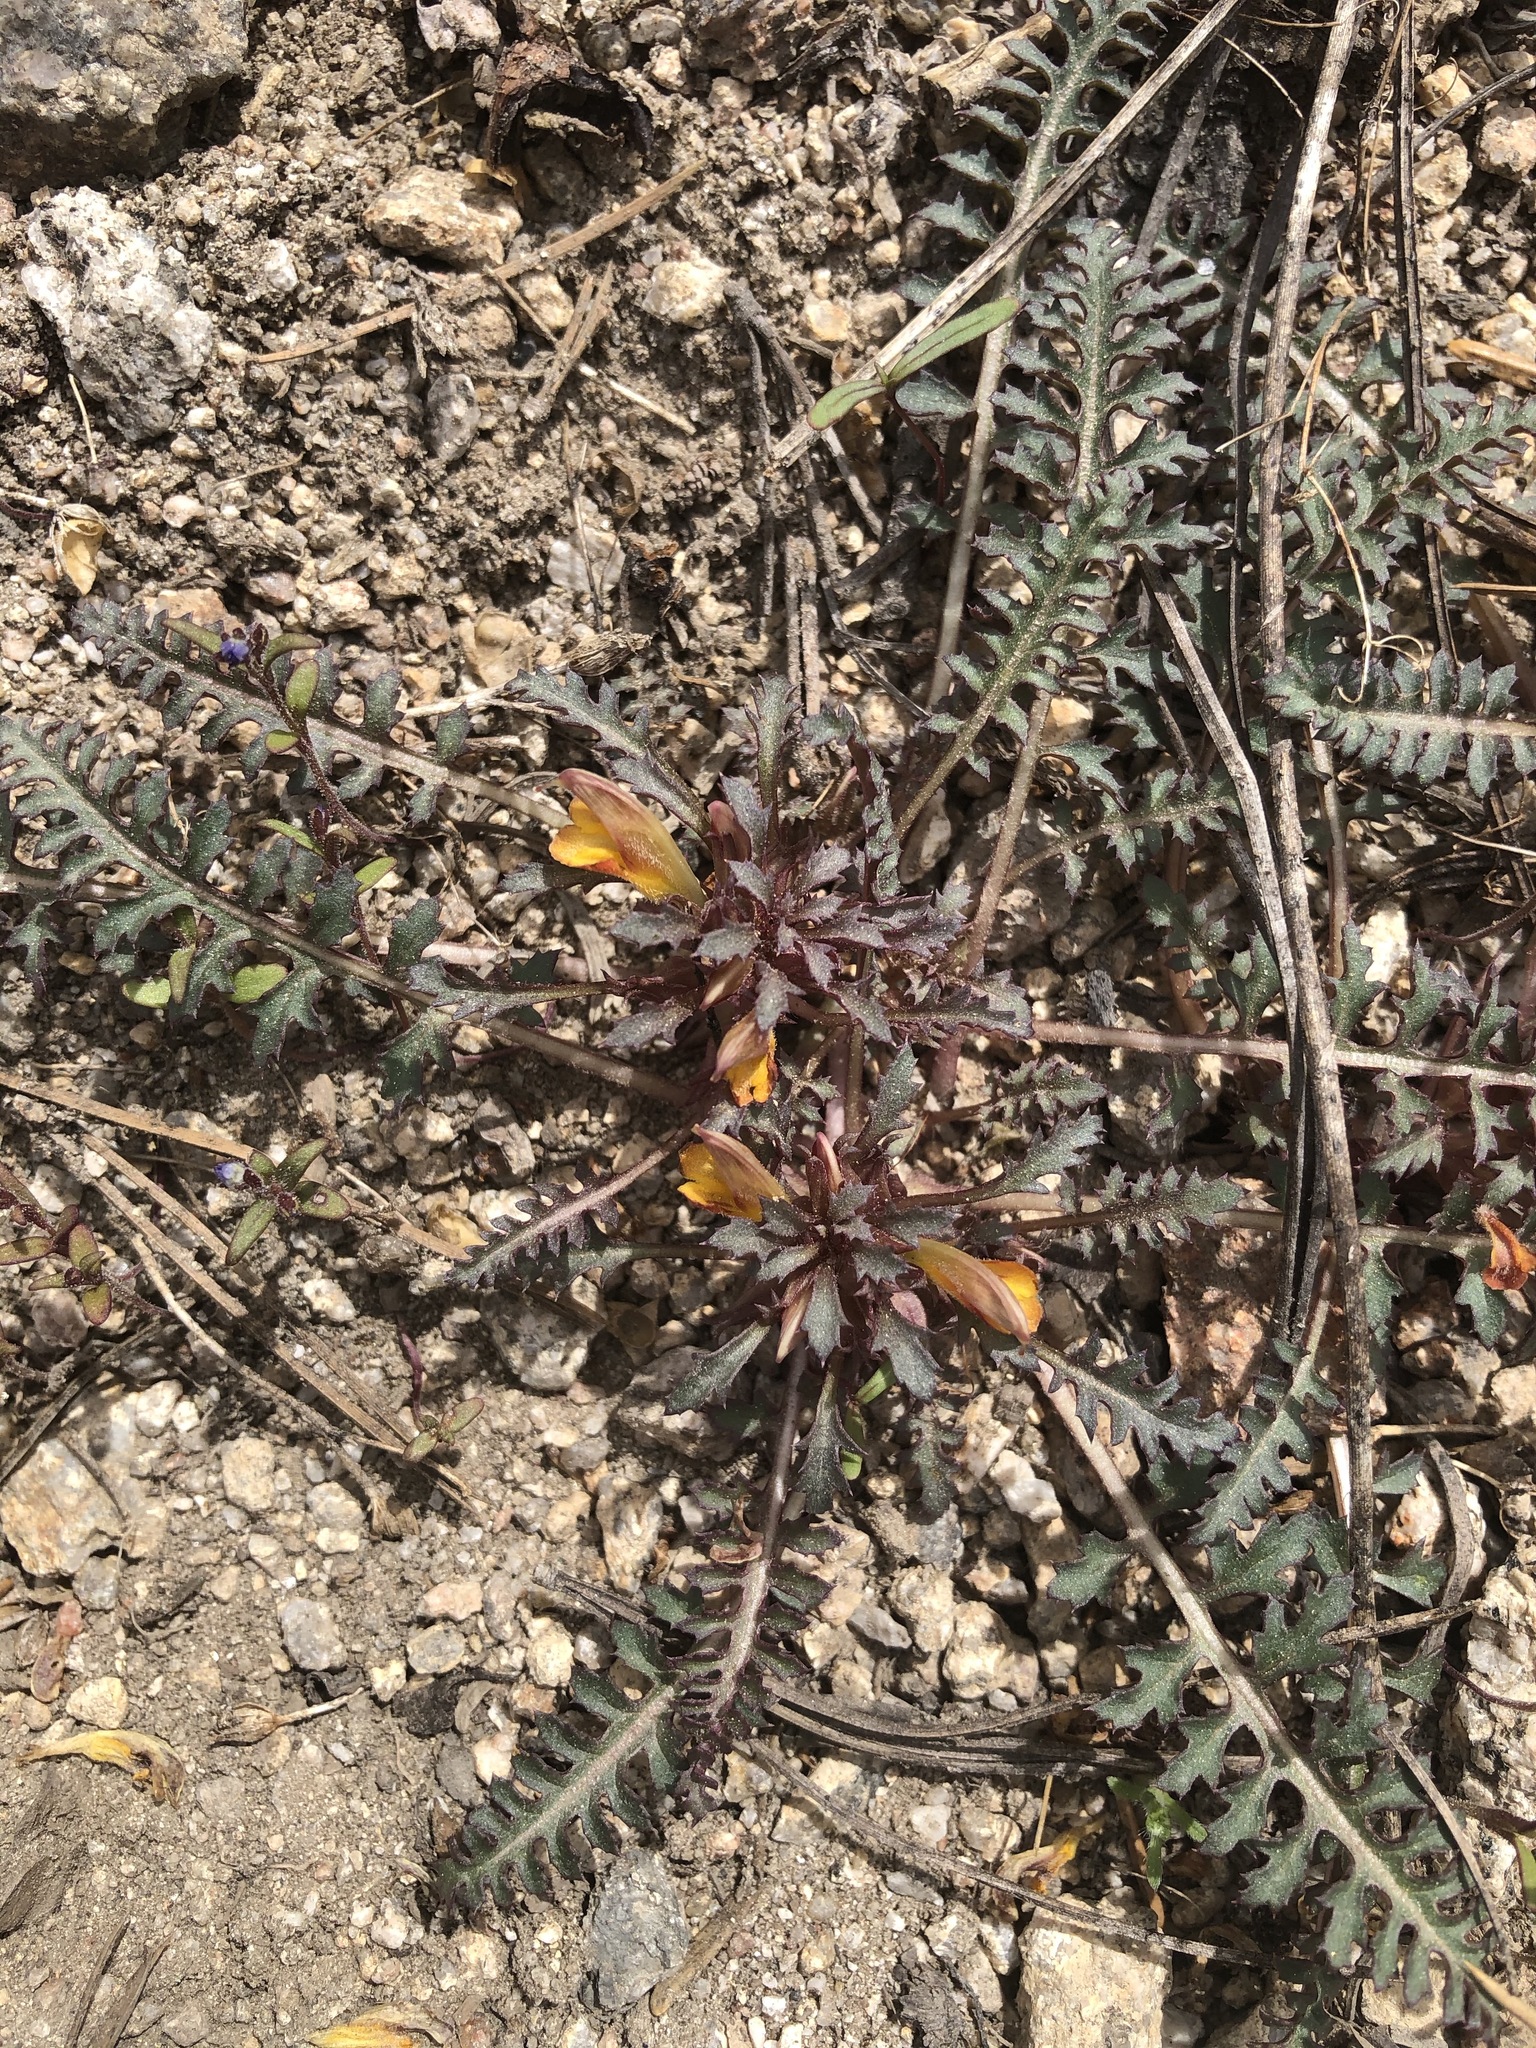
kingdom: Plantae
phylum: Tracheophyta
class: Magnoliopsida
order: Lamiales
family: Orobanchaceae
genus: Pedicularis
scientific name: Pedicularis semibarbata
